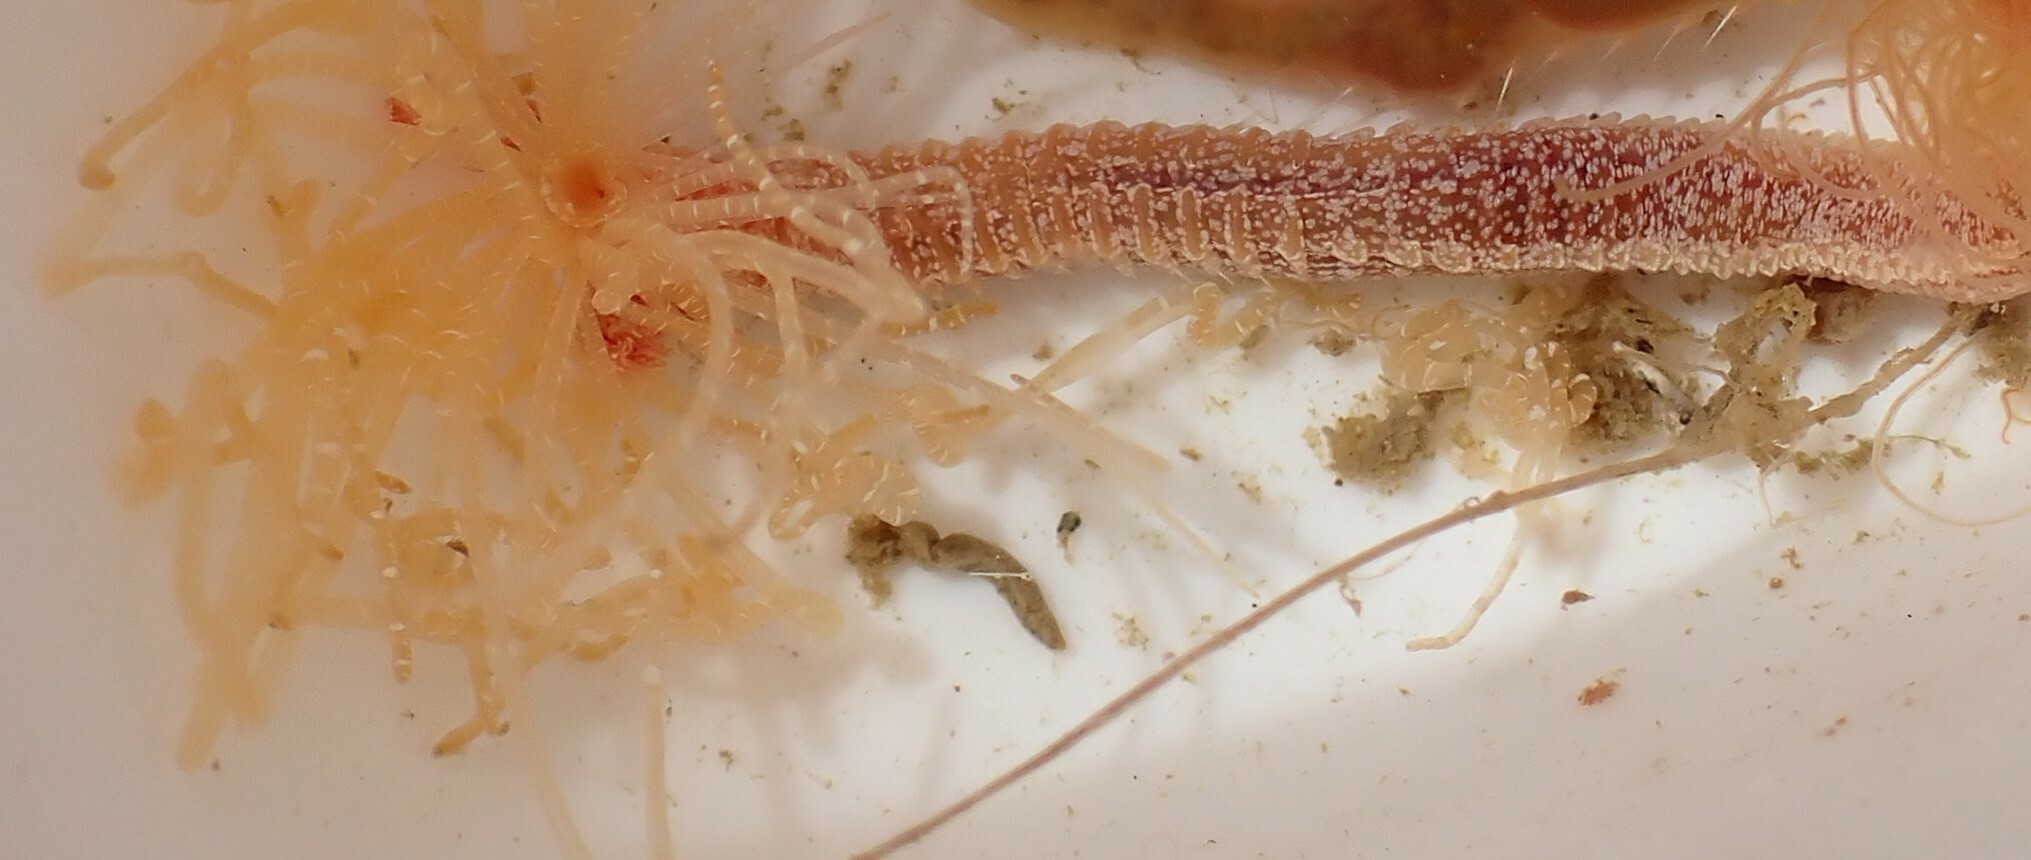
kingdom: Animalia
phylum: Annelida
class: Polychaeta
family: Terebellidae
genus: Eupolymnia
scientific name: Eupolymnia koorangia
